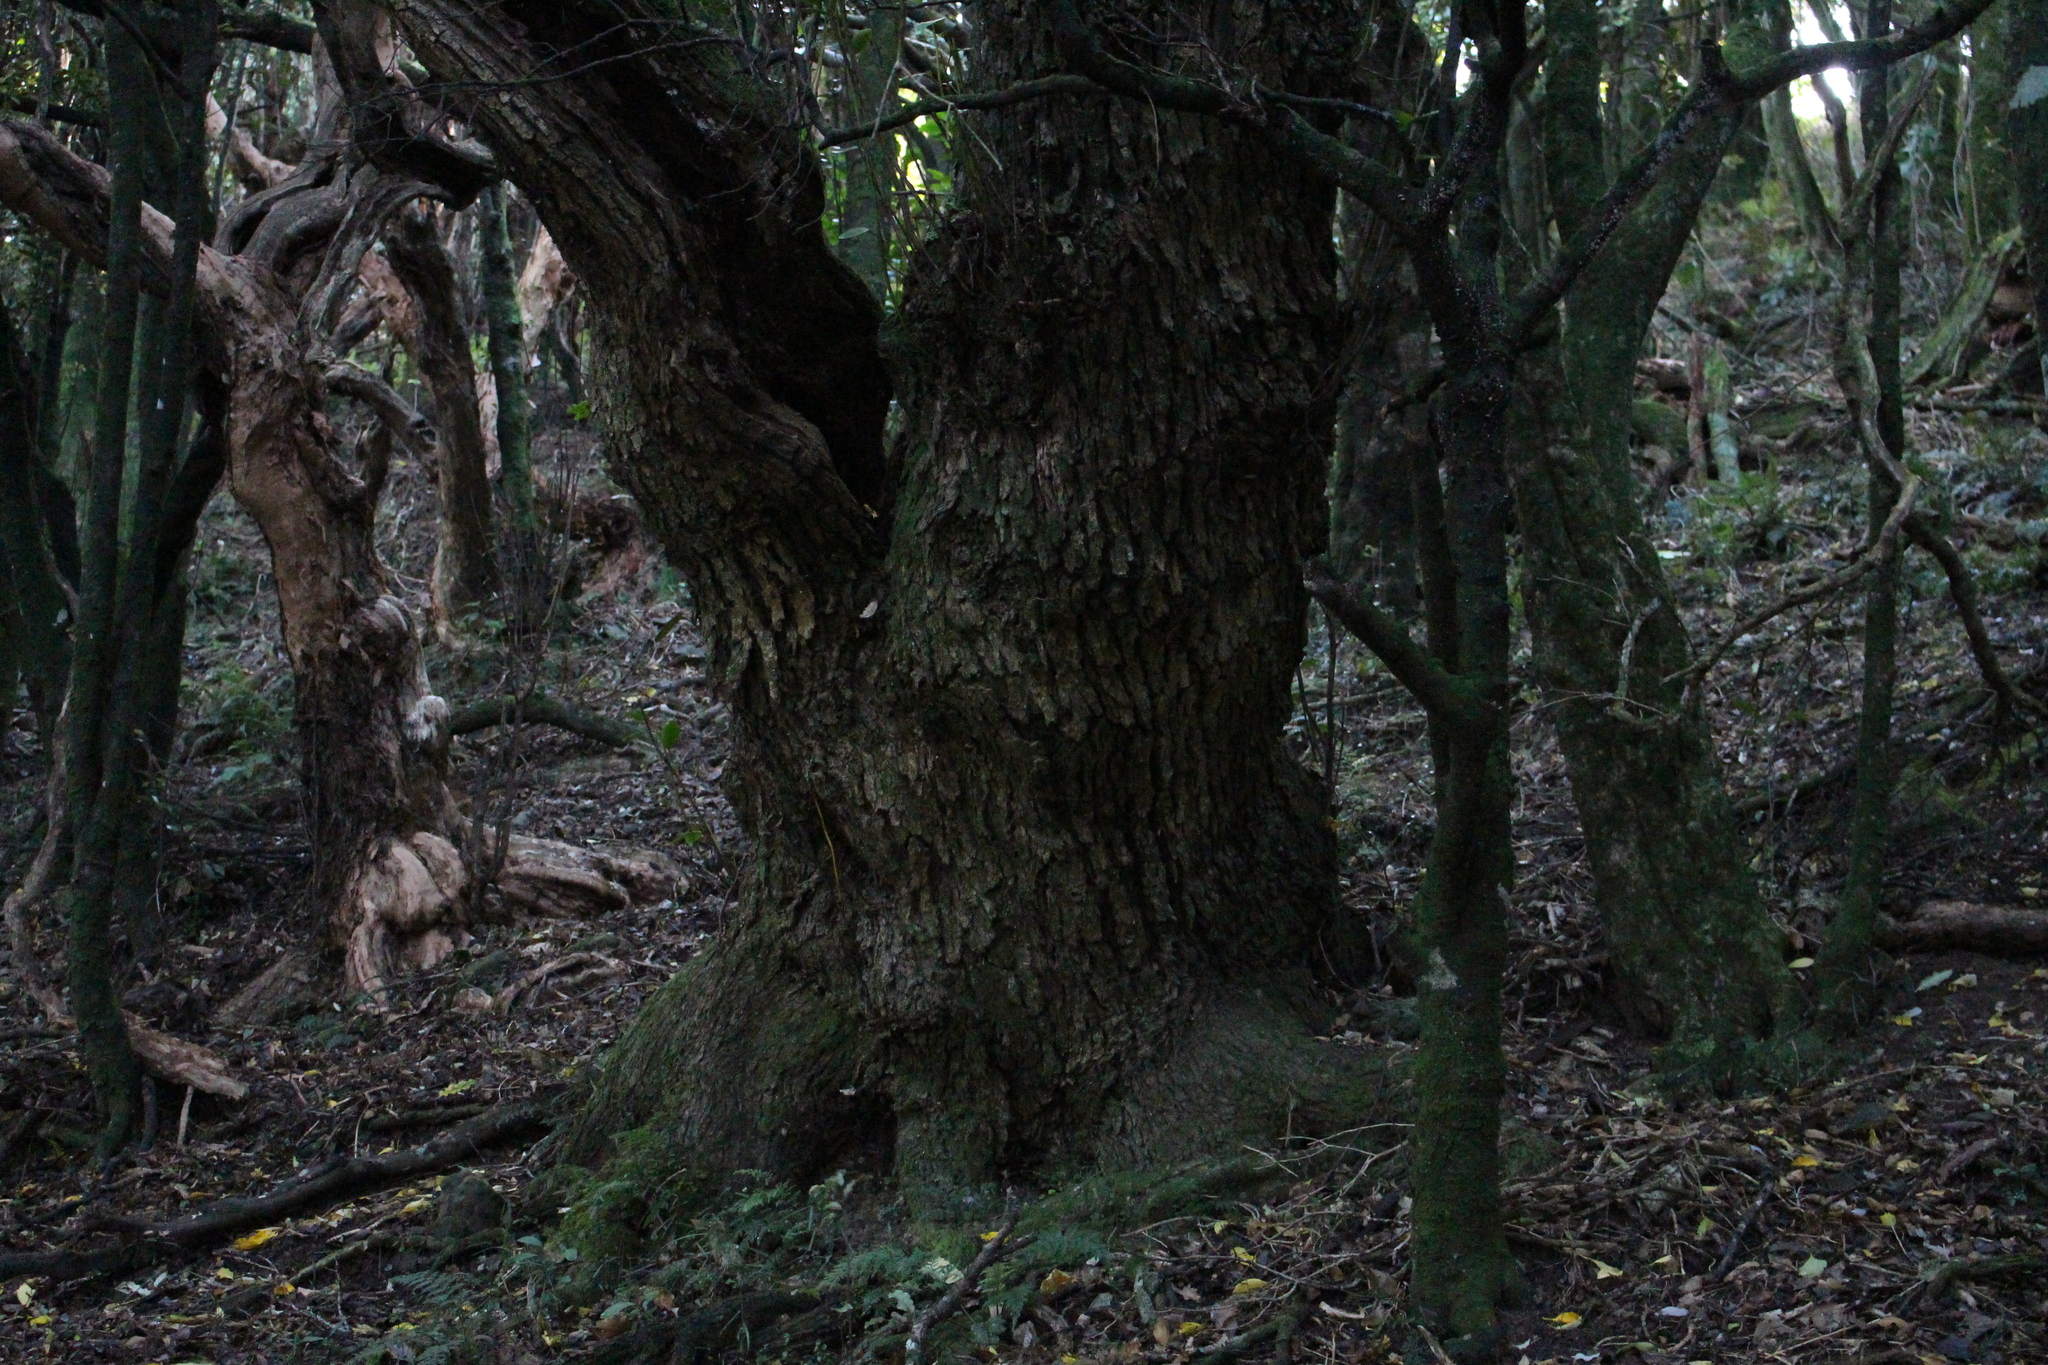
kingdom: Plantae
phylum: Tracheophyta
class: Magnoliopsida
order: Apiales
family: Griseliniaceae
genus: Griselinia
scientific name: Griselinia littoralis
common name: New zealand broadleaf
